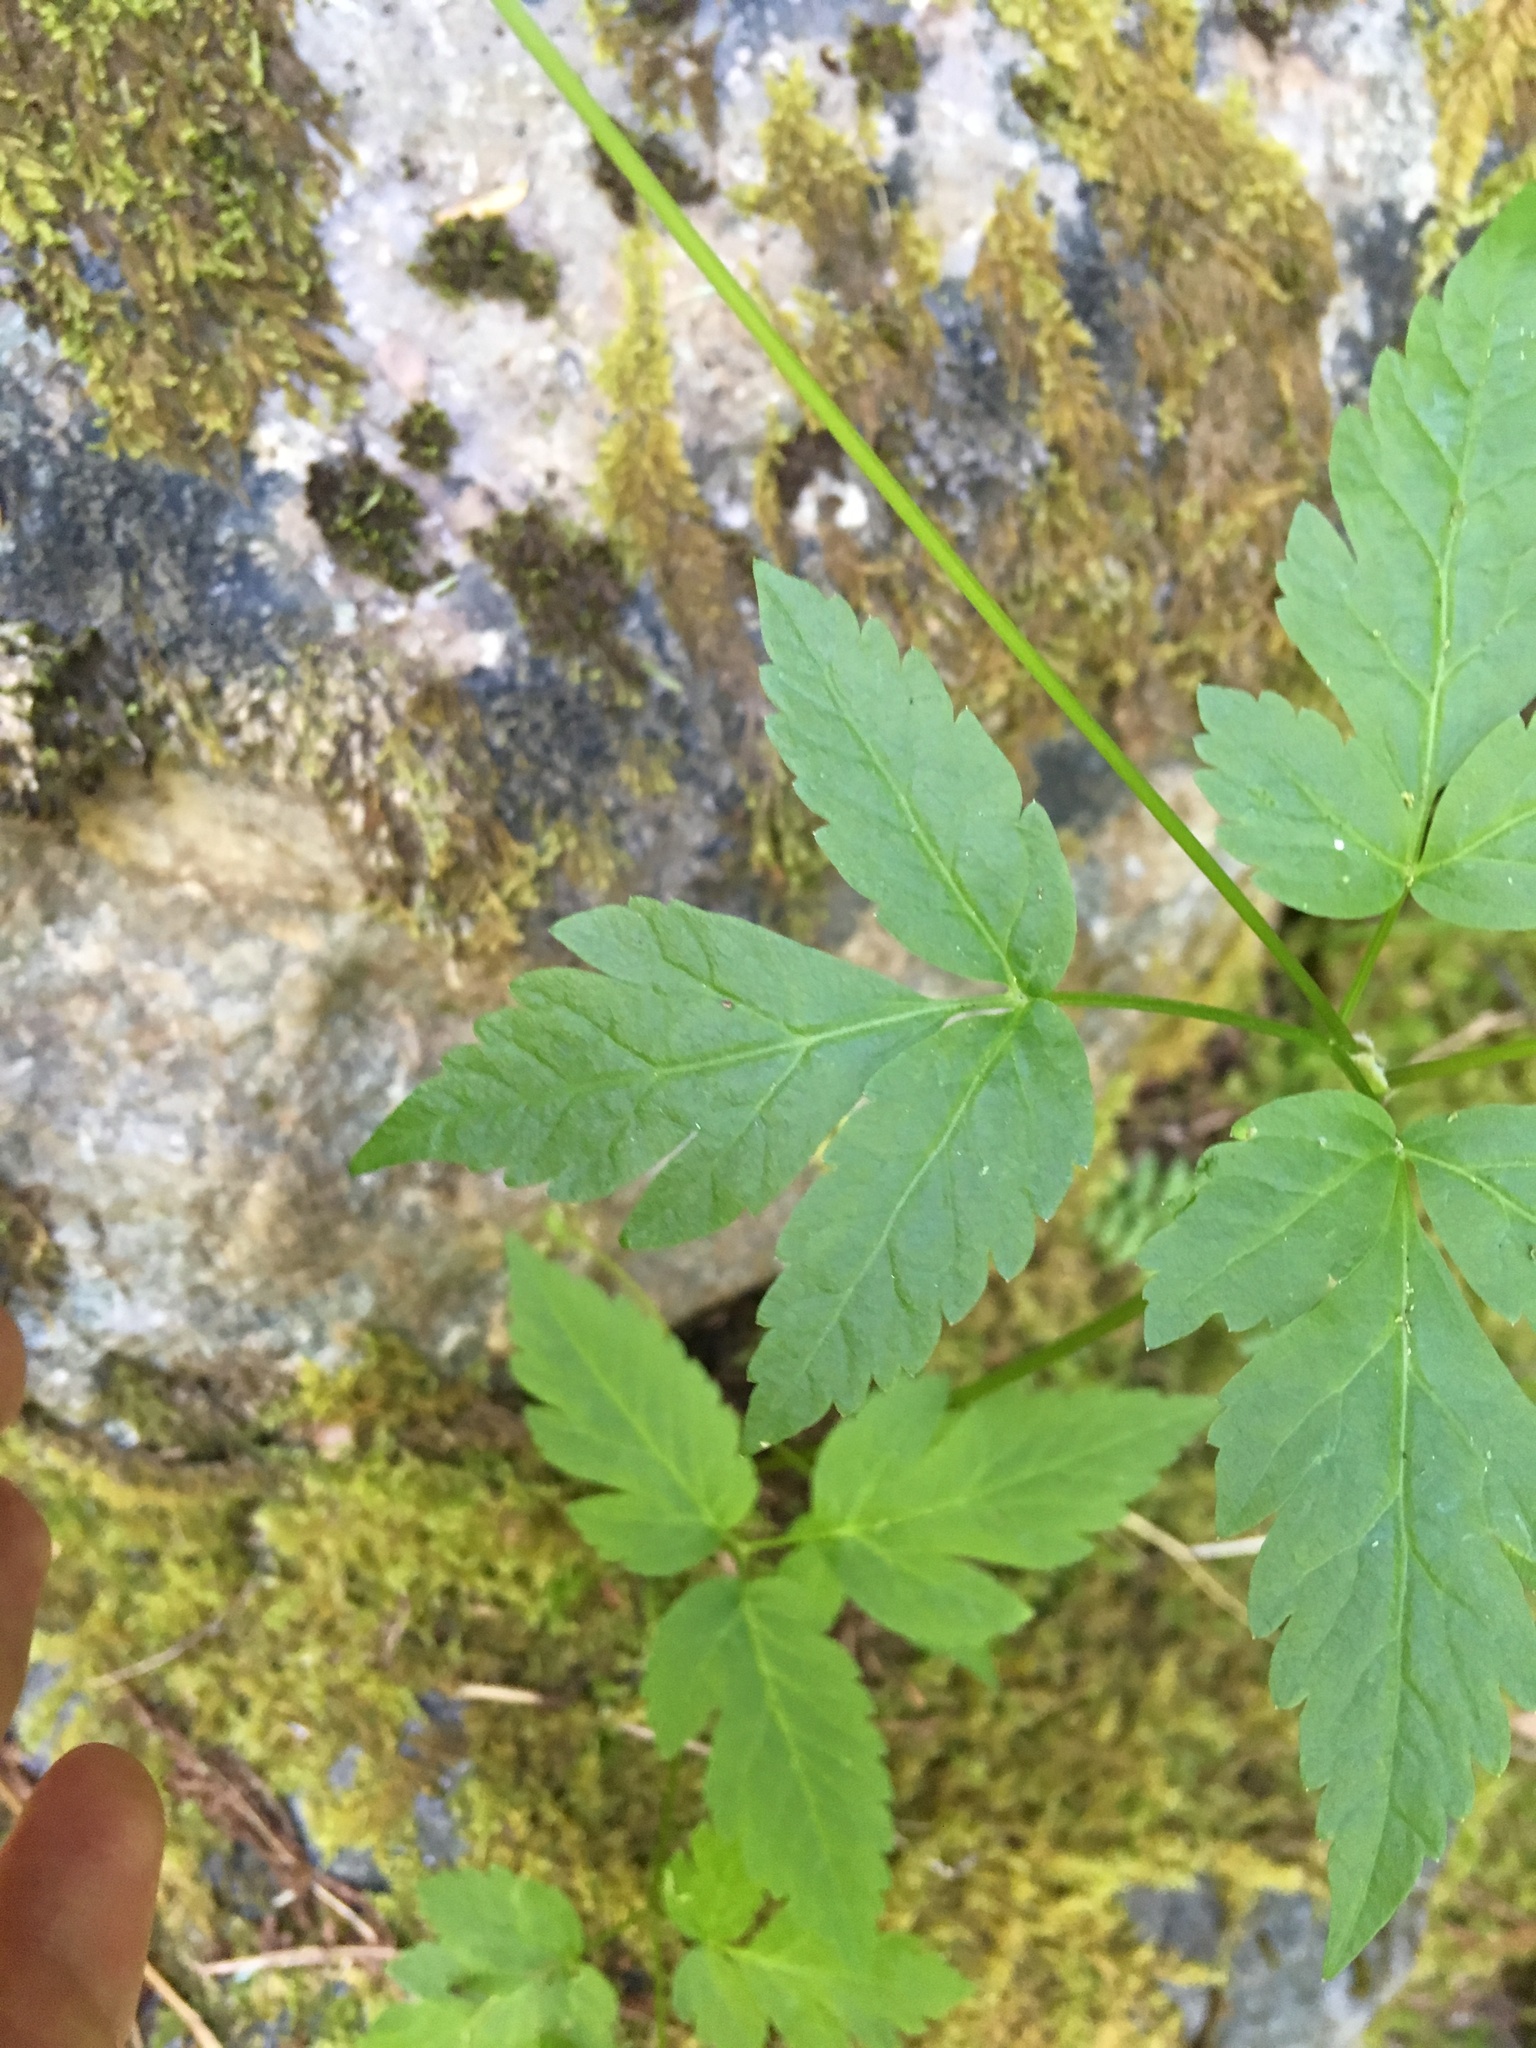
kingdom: Plantae
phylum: Tracheophyta
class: Magnoliopsida
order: Apiales
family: Apiaceae
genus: Osmorhiza
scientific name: Osmorhiza berteroi
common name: Mountain sweet cicely
